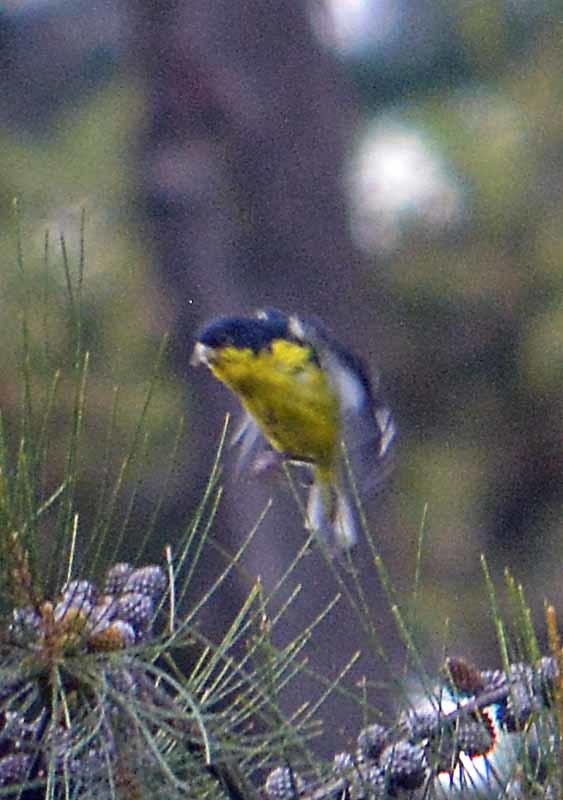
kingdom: Animalia
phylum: Chordata
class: Aves
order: Passeriformes
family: Fringillidae
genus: Spinus
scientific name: Spinus psaltria
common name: Lesser goldfinch
